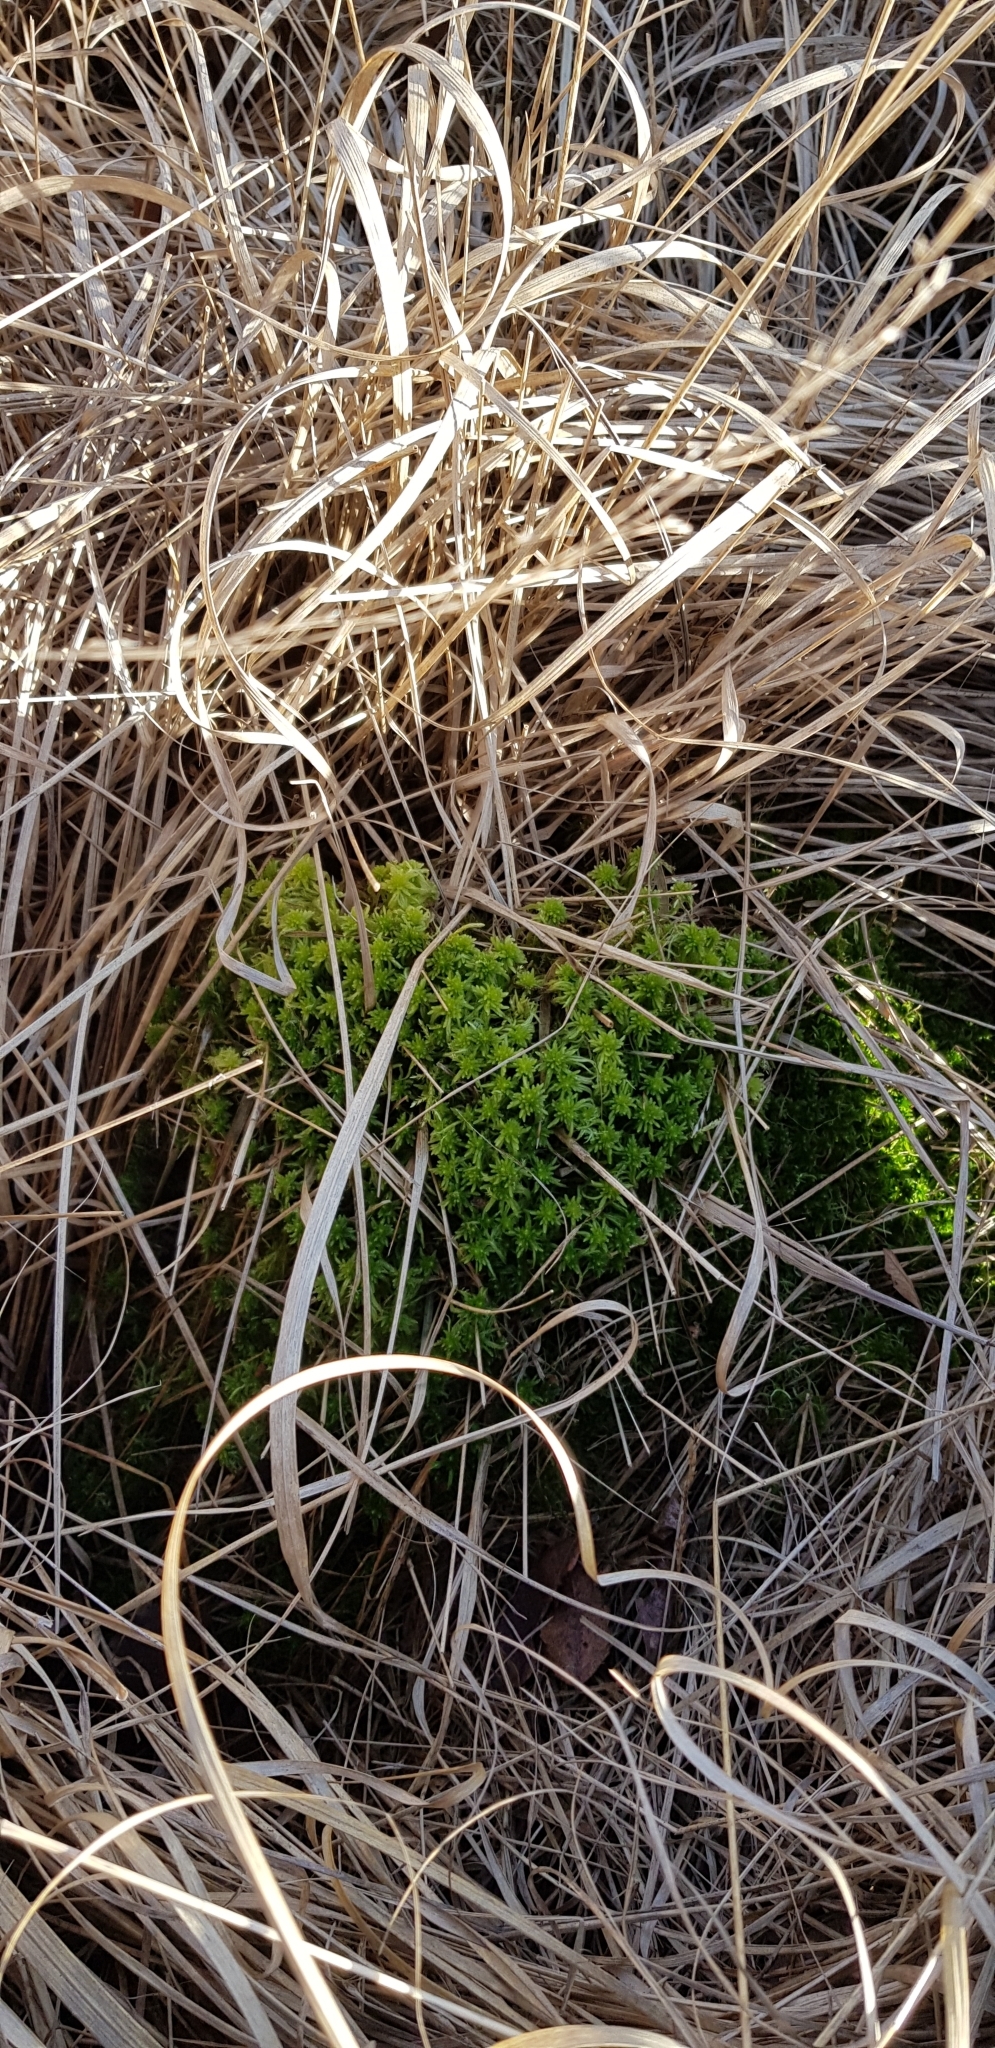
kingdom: Plantae
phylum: Bryophyta
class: Bryopsida
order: Hypnales
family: Calliergonaceae
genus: Straminergon
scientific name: Straminergon stramineum
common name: Straw moss
